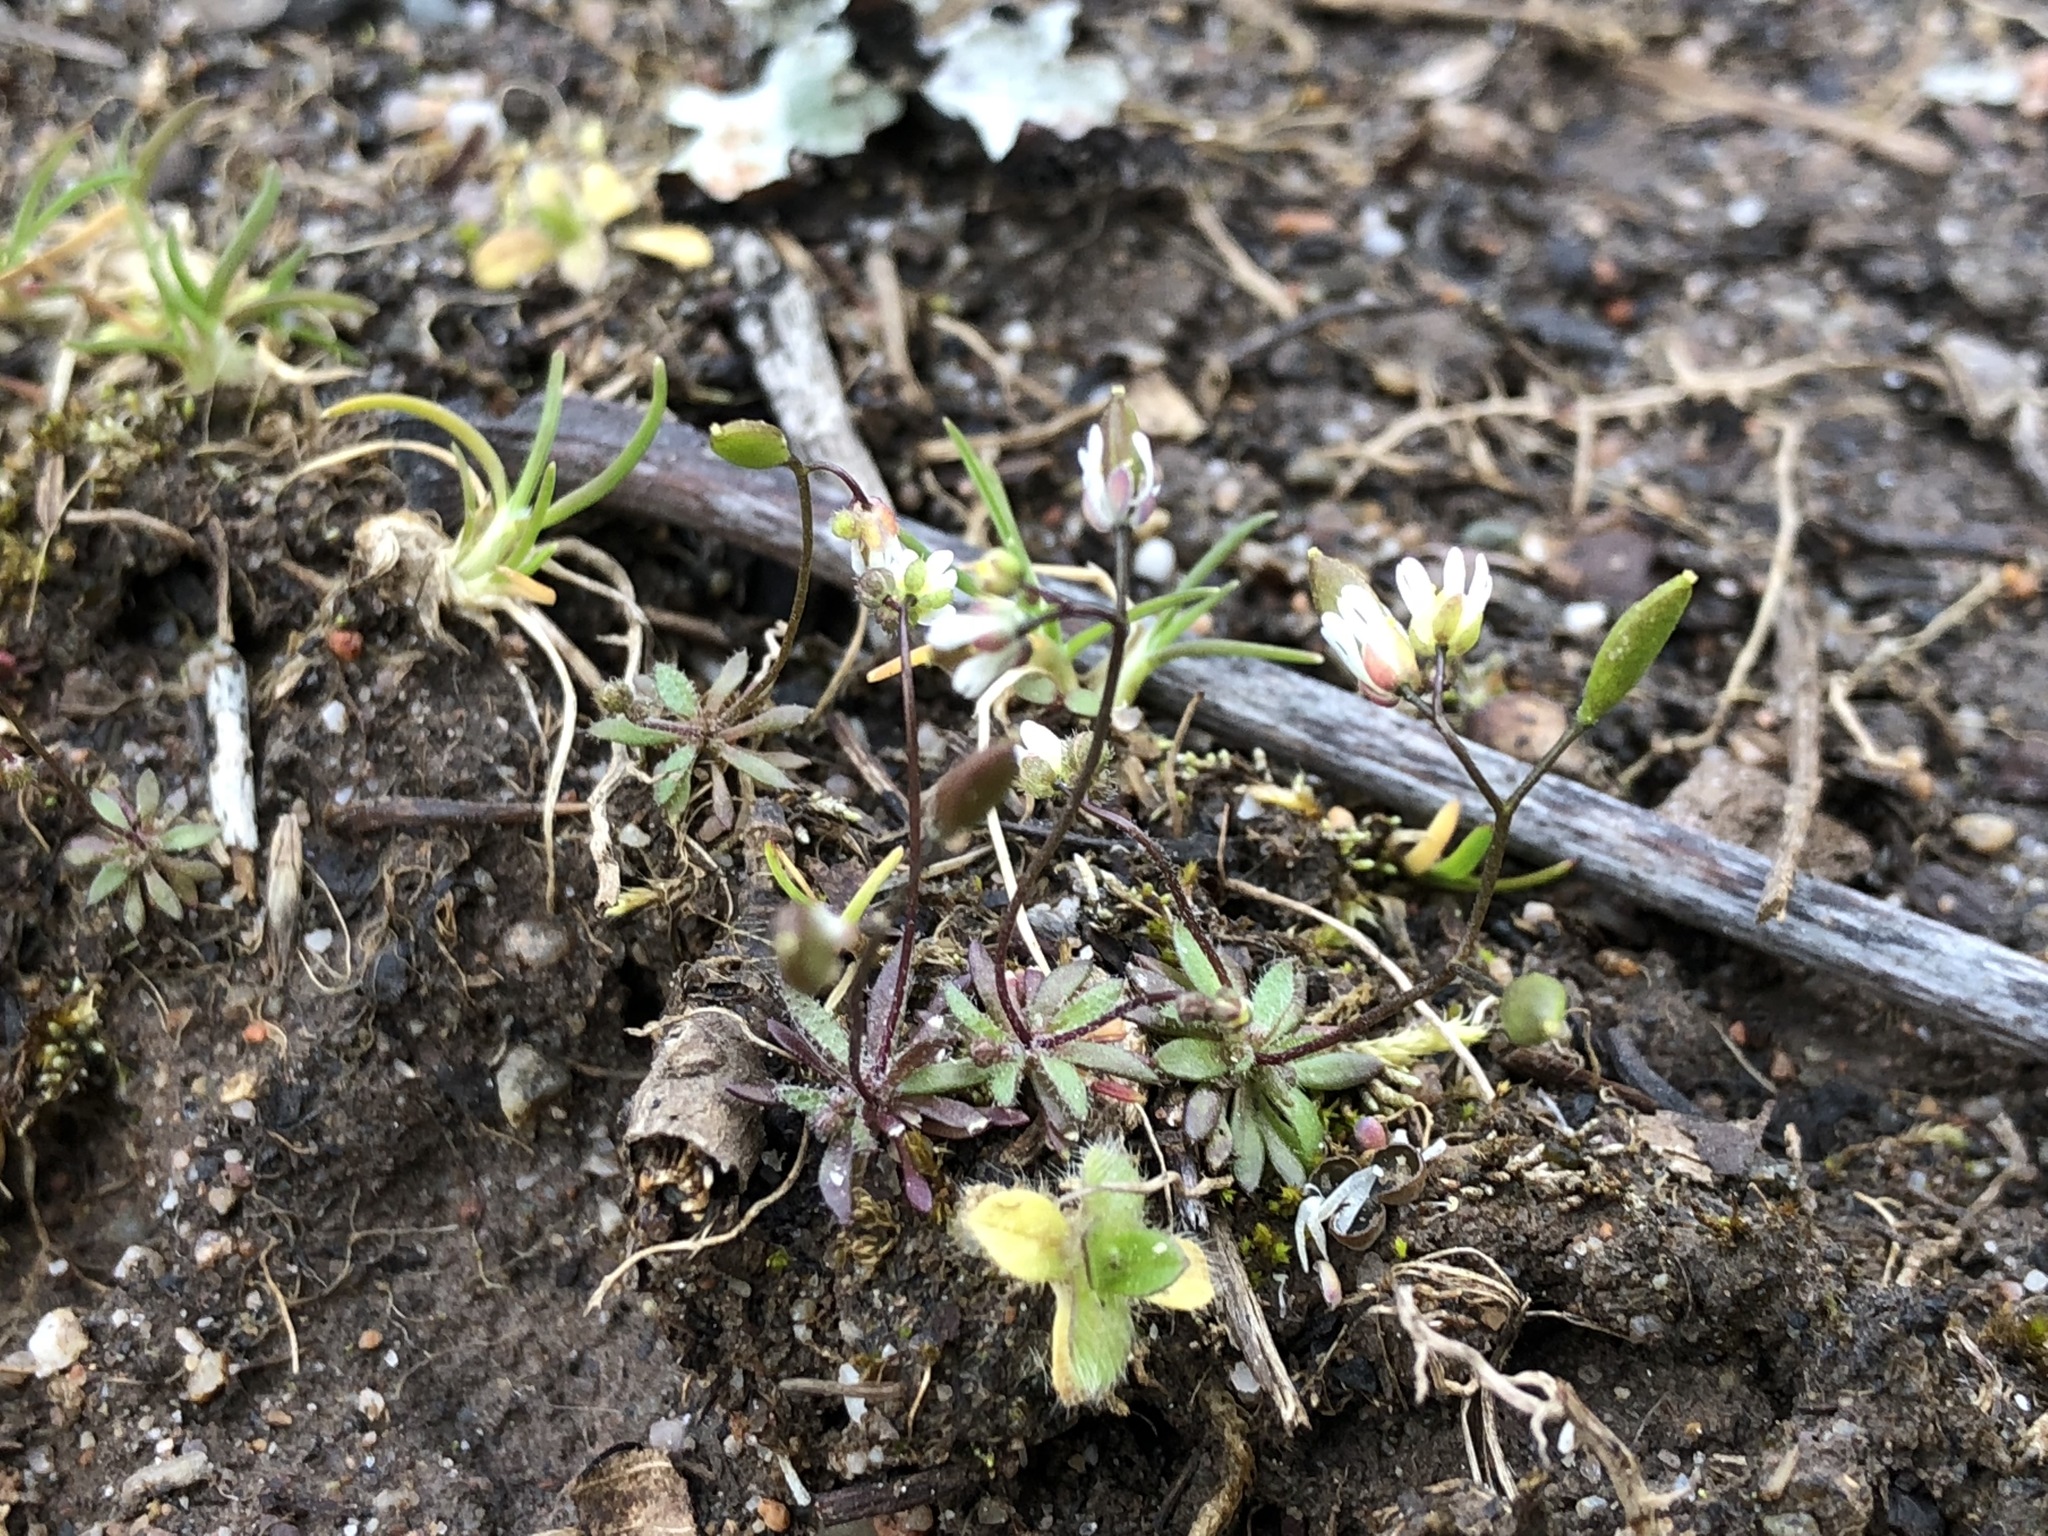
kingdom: Plantae
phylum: Tracheophyta
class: Magnoliopsida
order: Brassicales
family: Brassicaceae
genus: Draba
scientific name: Draba verna
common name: Spring draba
